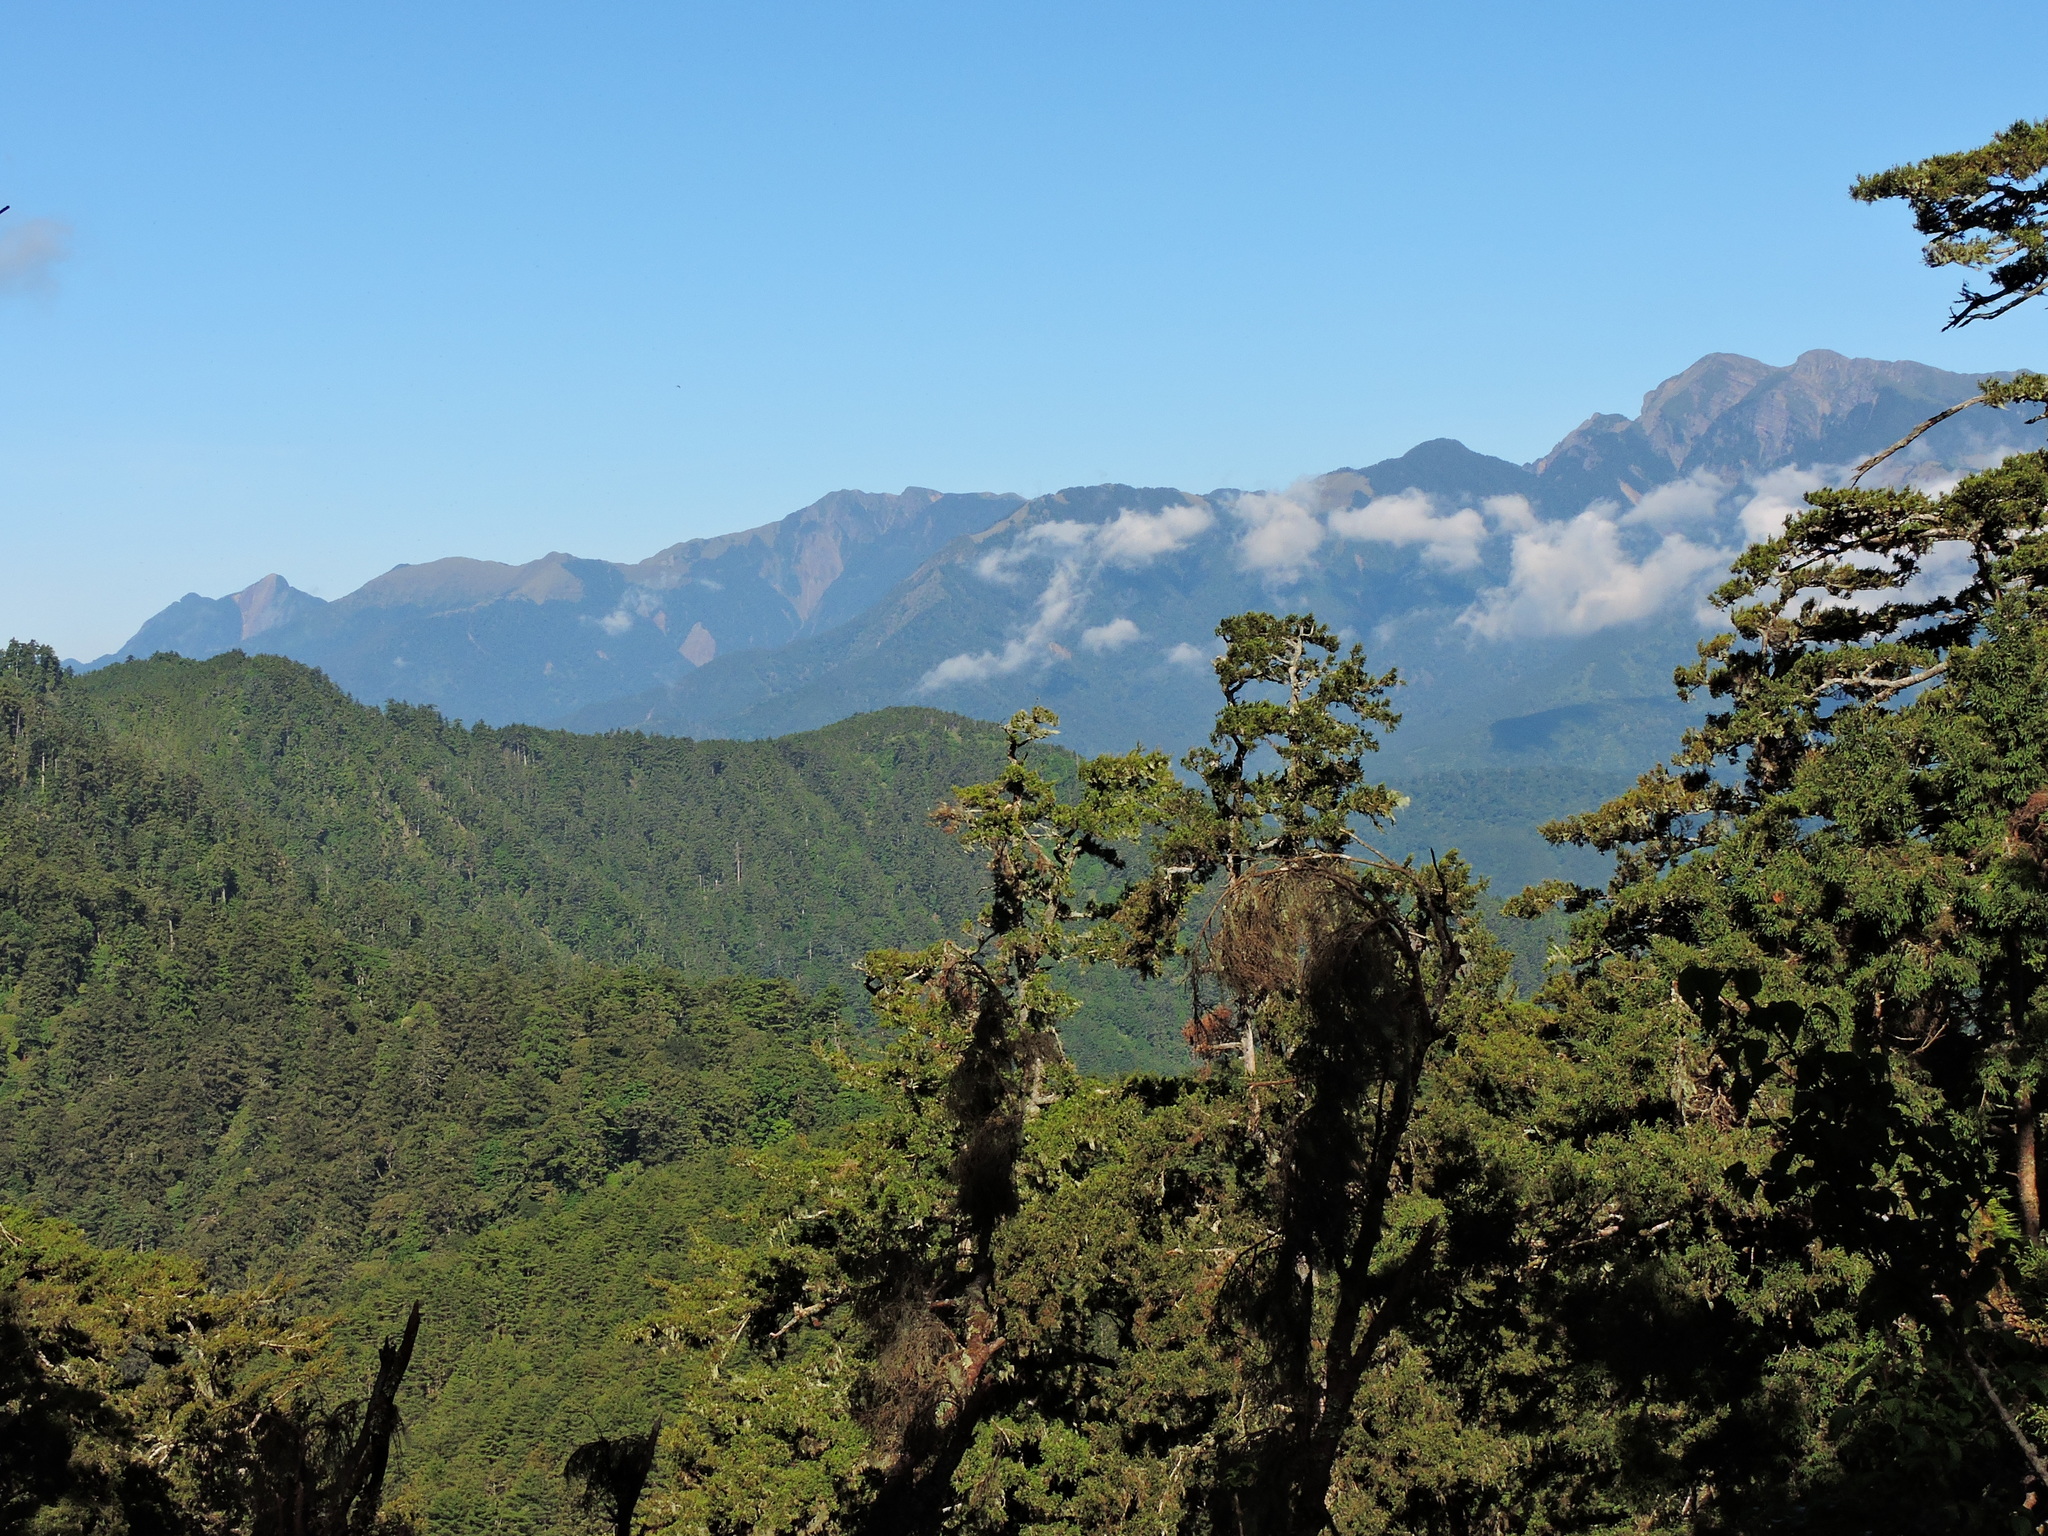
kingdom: Plantae
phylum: Tracheophyta
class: Pinopsida
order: Pinales
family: Pinaceae
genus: Picea
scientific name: Picea morrisonicola
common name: Mount morrison spruce
